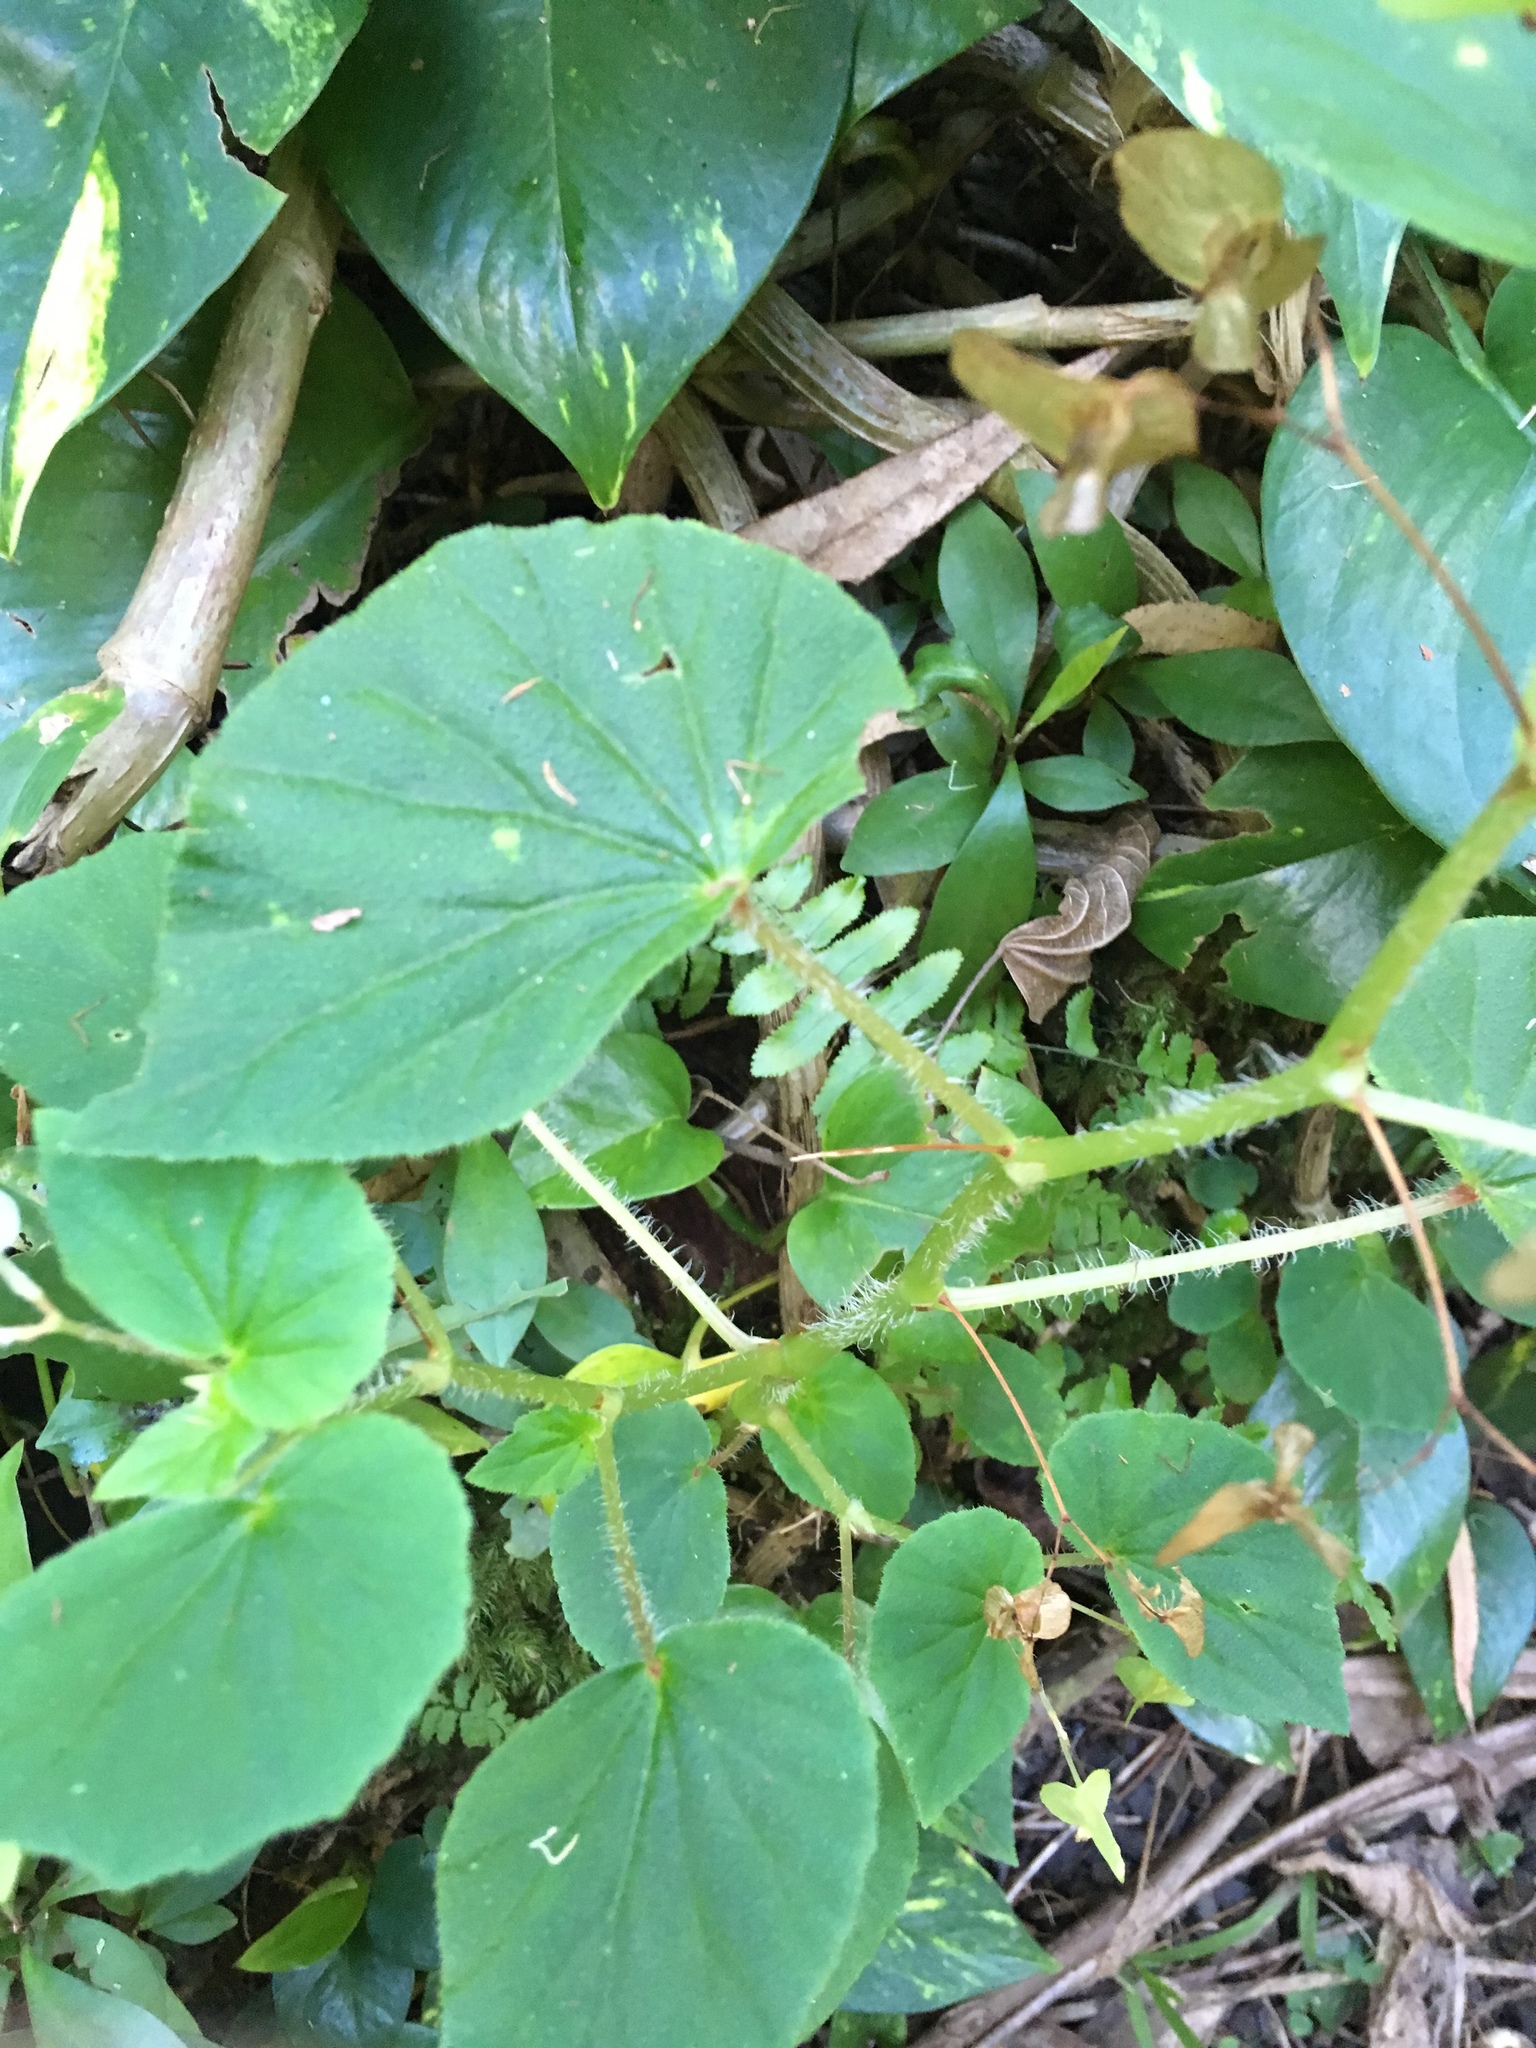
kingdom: Plantae
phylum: Tracheophyta
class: Magnoliopsida
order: Cucurbitales
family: Begoniaceae
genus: Begonia
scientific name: Begonia hirtella
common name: Brazilian begonia
